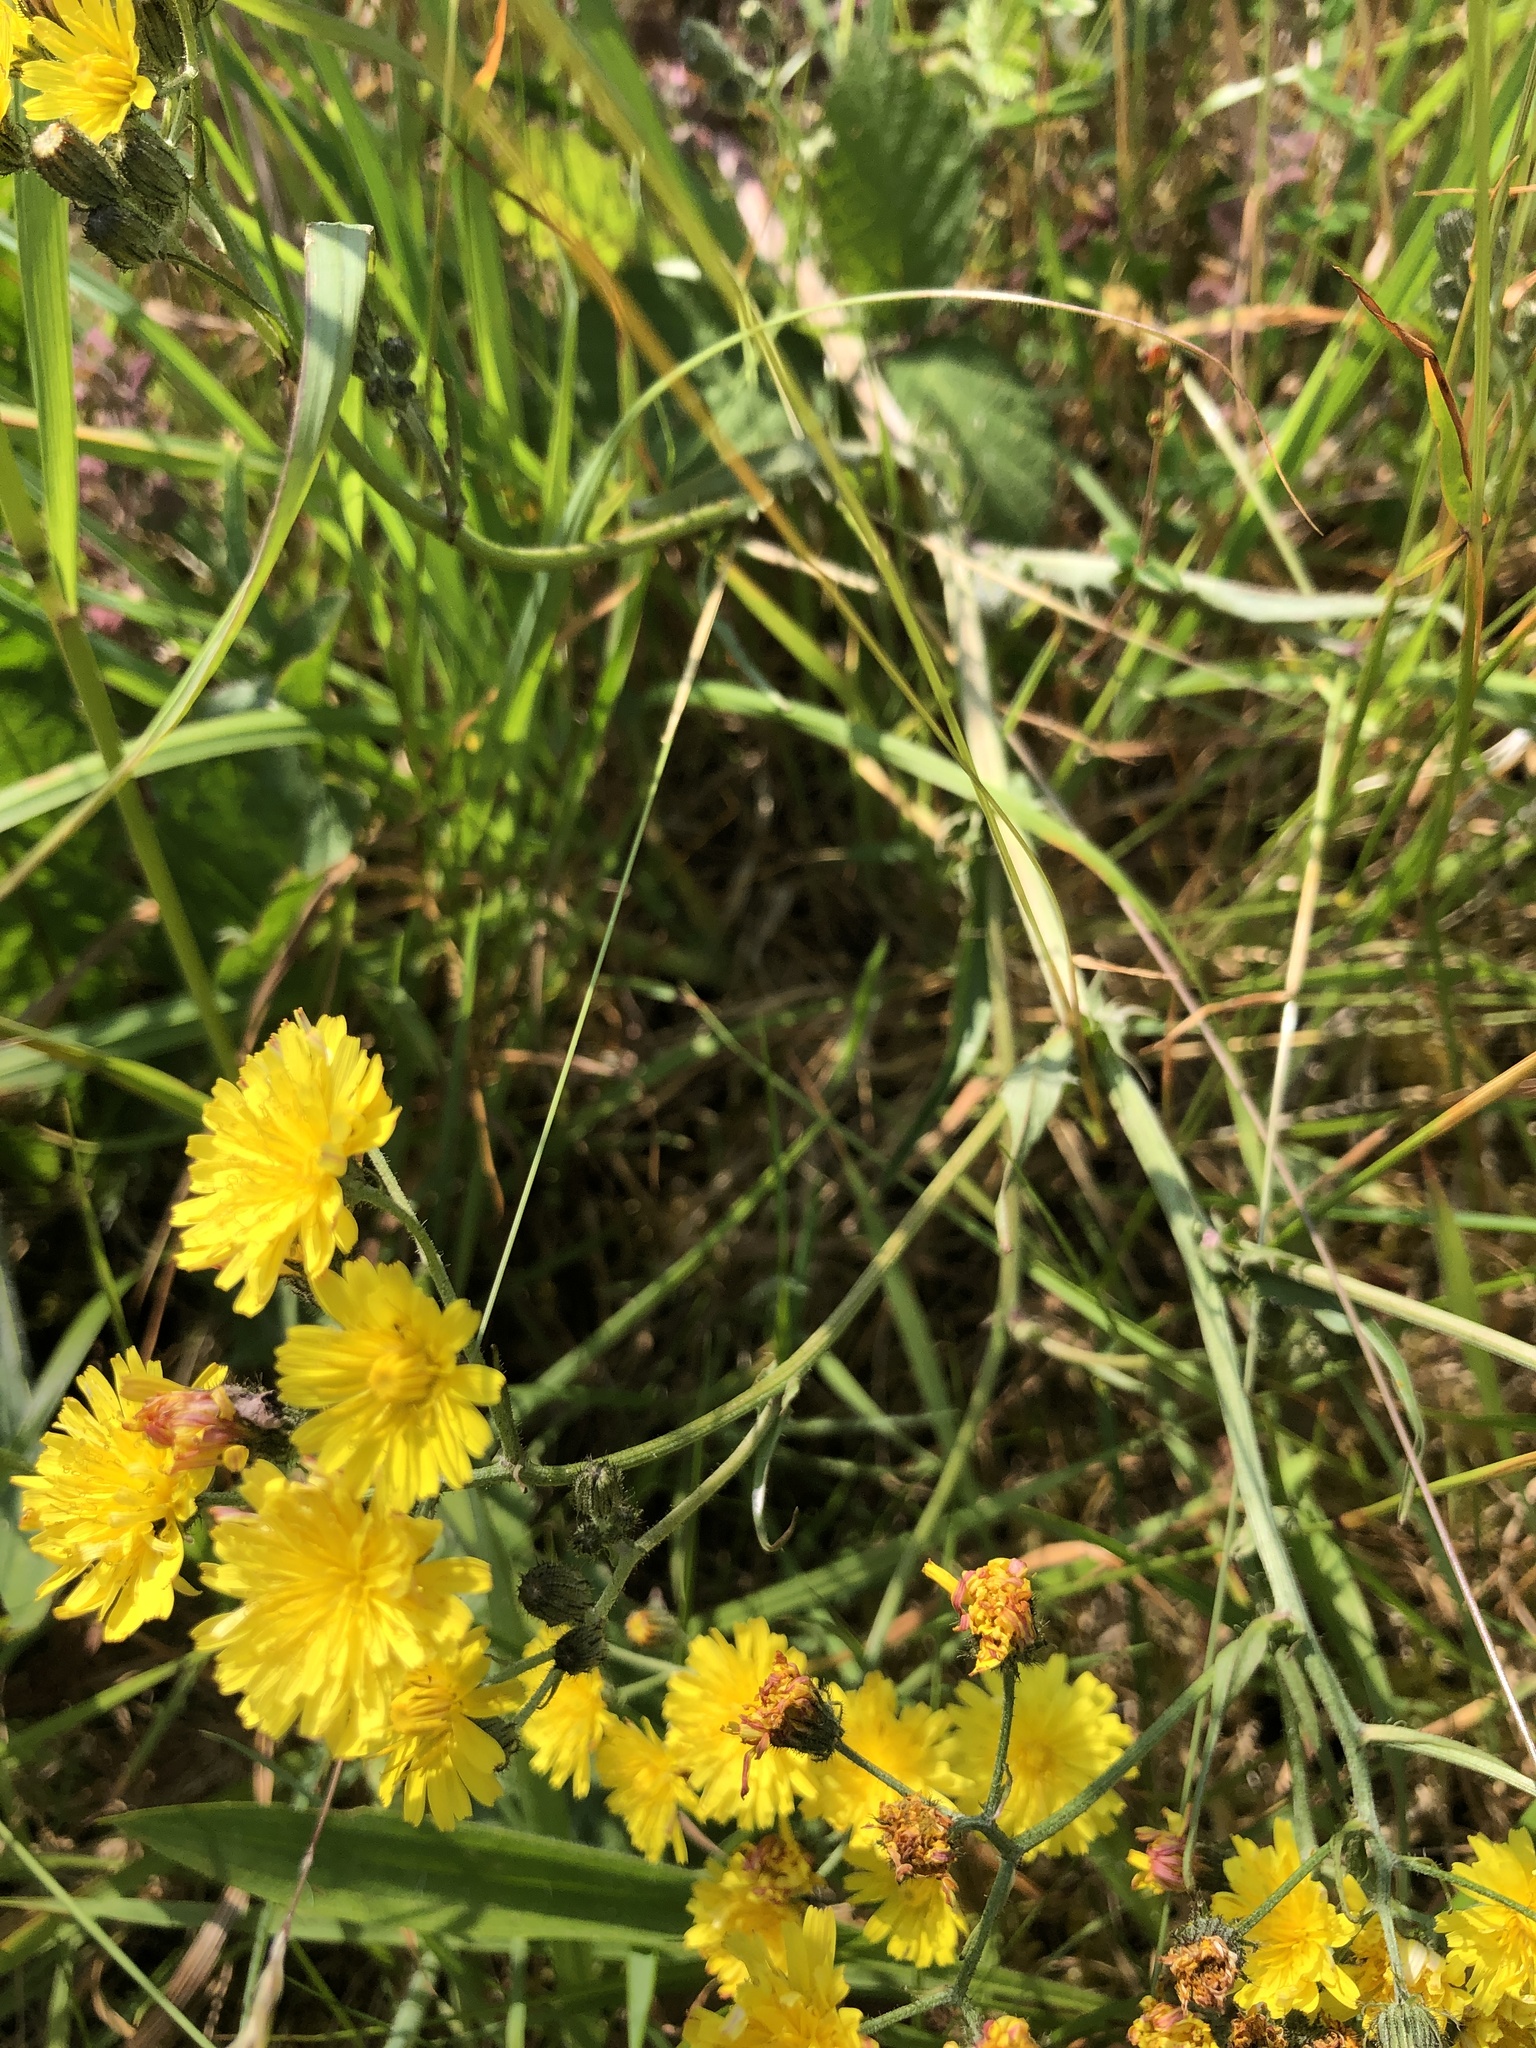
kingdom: Plantae
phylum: Tracheophyta
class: Magnoliopsida
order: Asterales
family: Asteraceae
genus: Crepis
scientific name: Crepis capillaris
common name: Smooth hawksbeard
